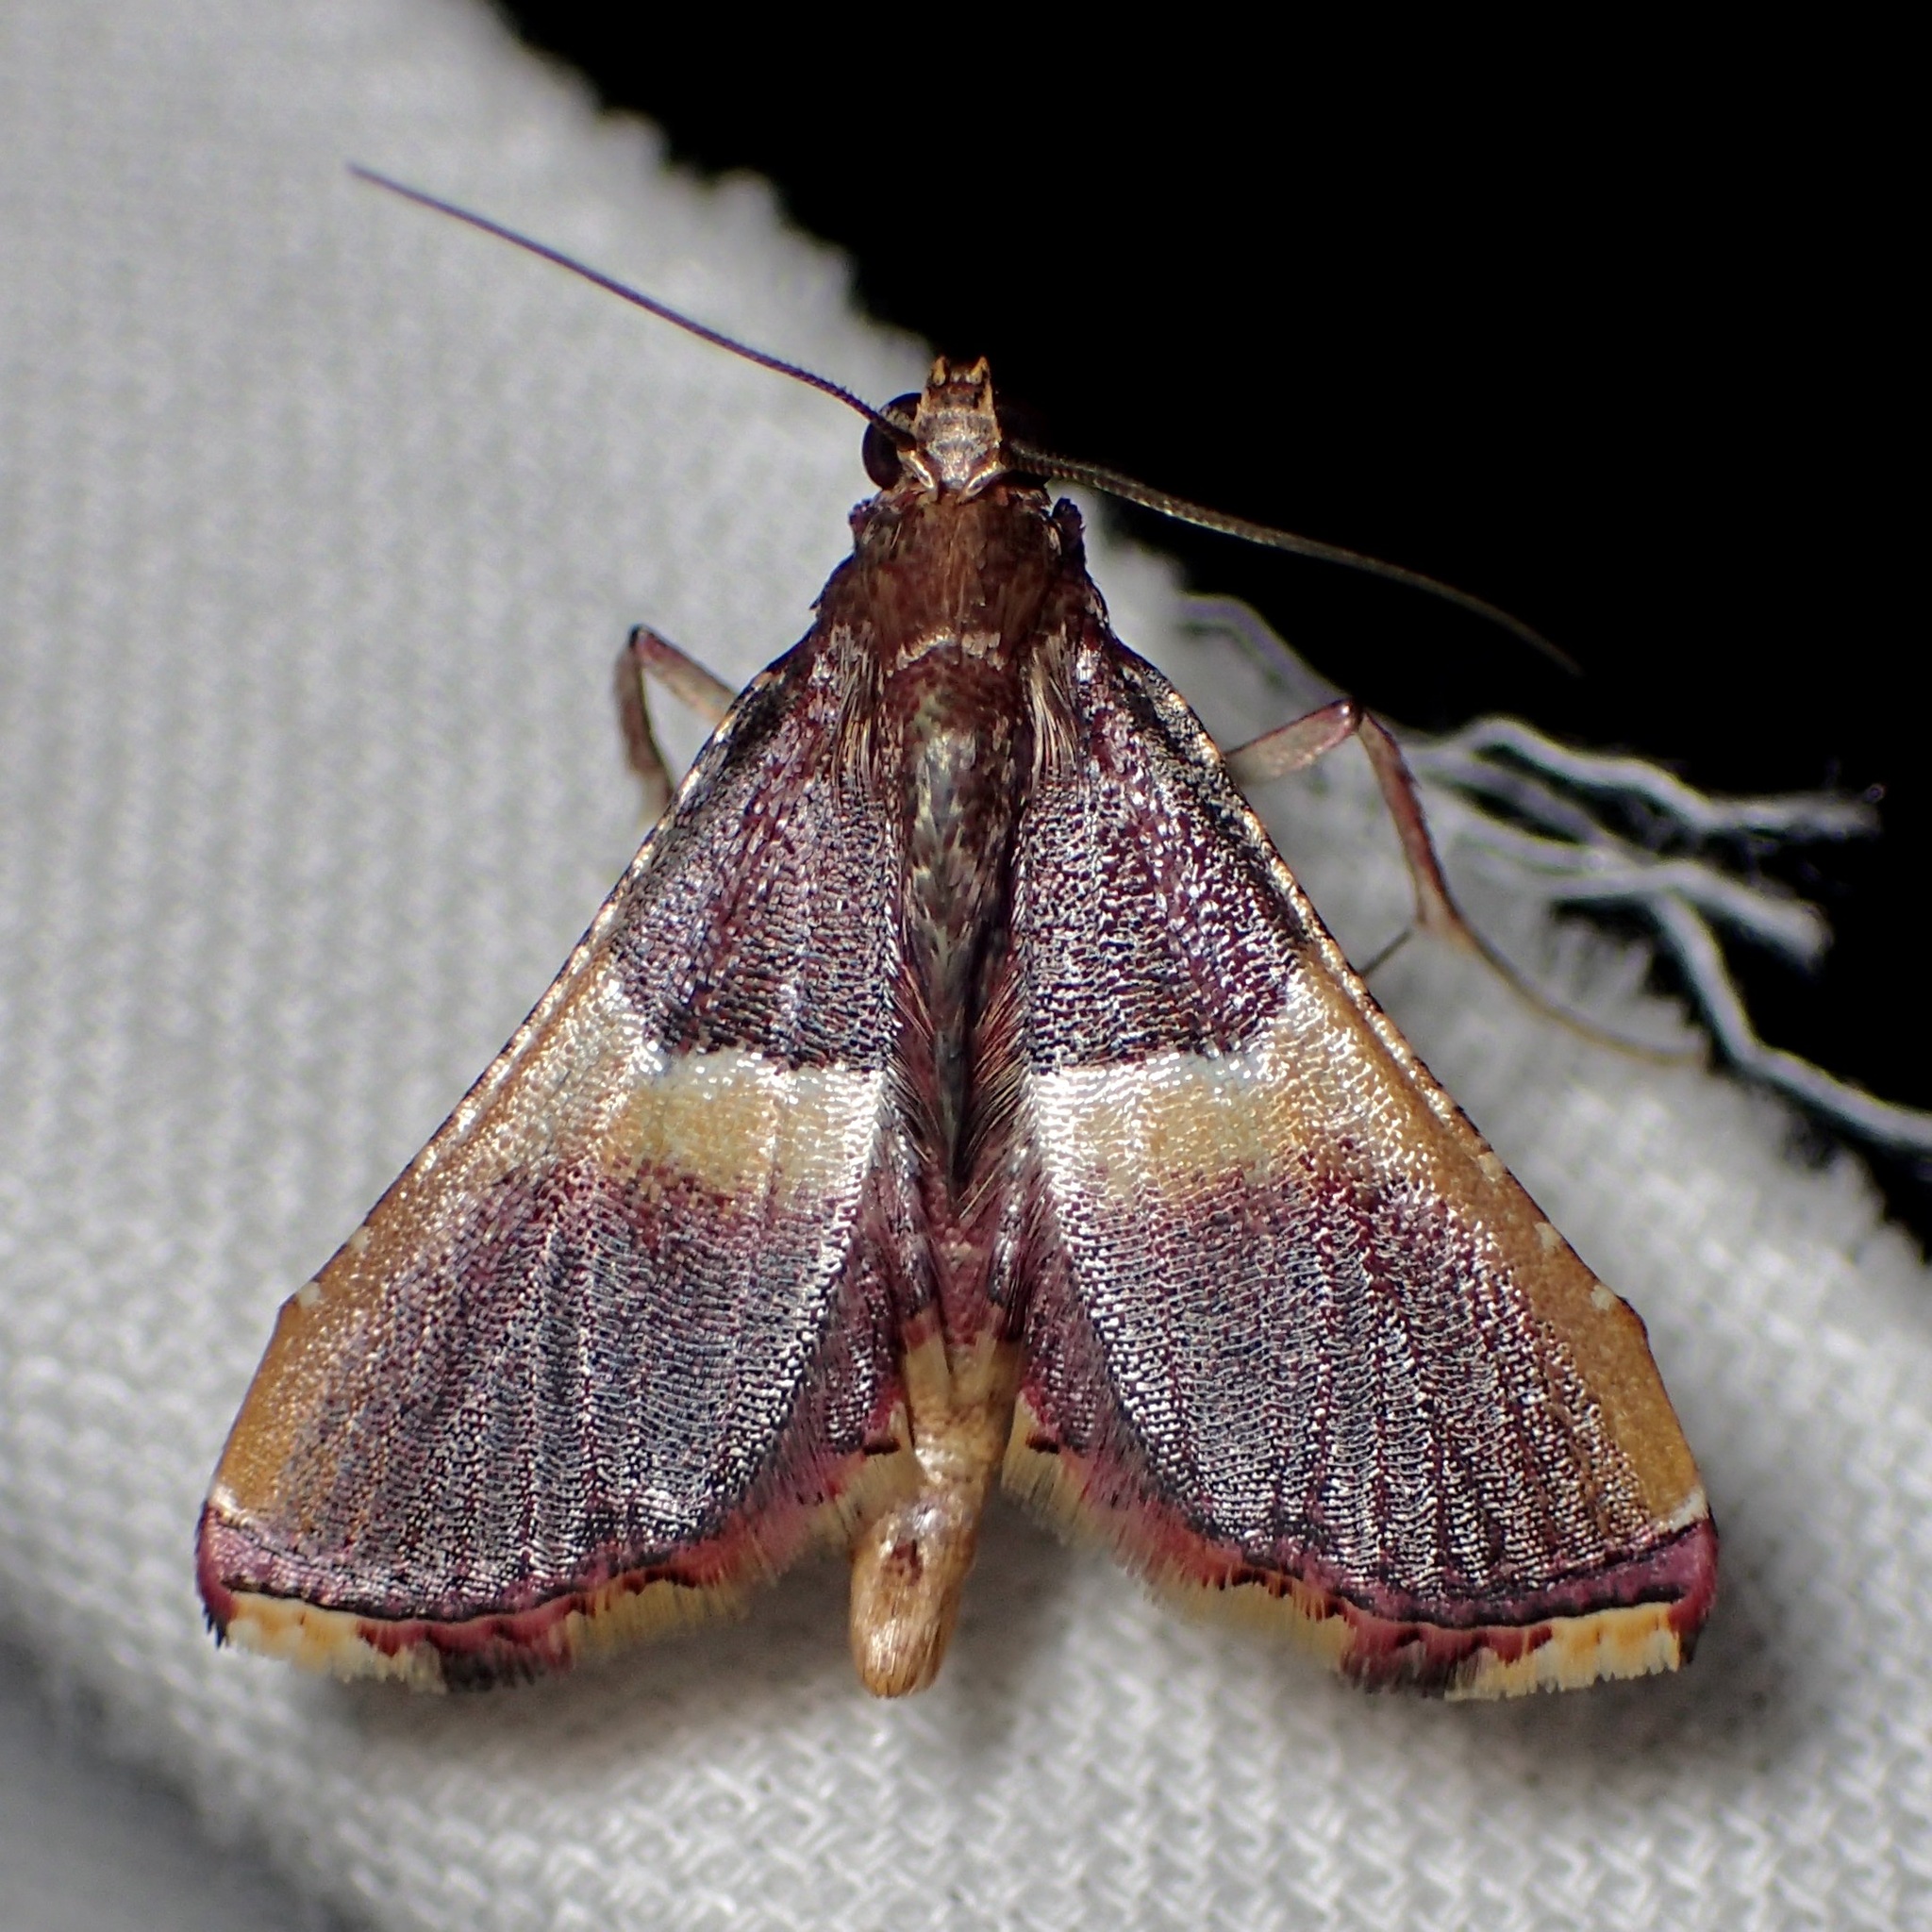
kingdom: Animalia
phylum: Arthropoda
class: Insecta
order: Lepidoptera
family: Pyralidae
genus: Endotricha
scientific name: Endotricha mesenterialis
